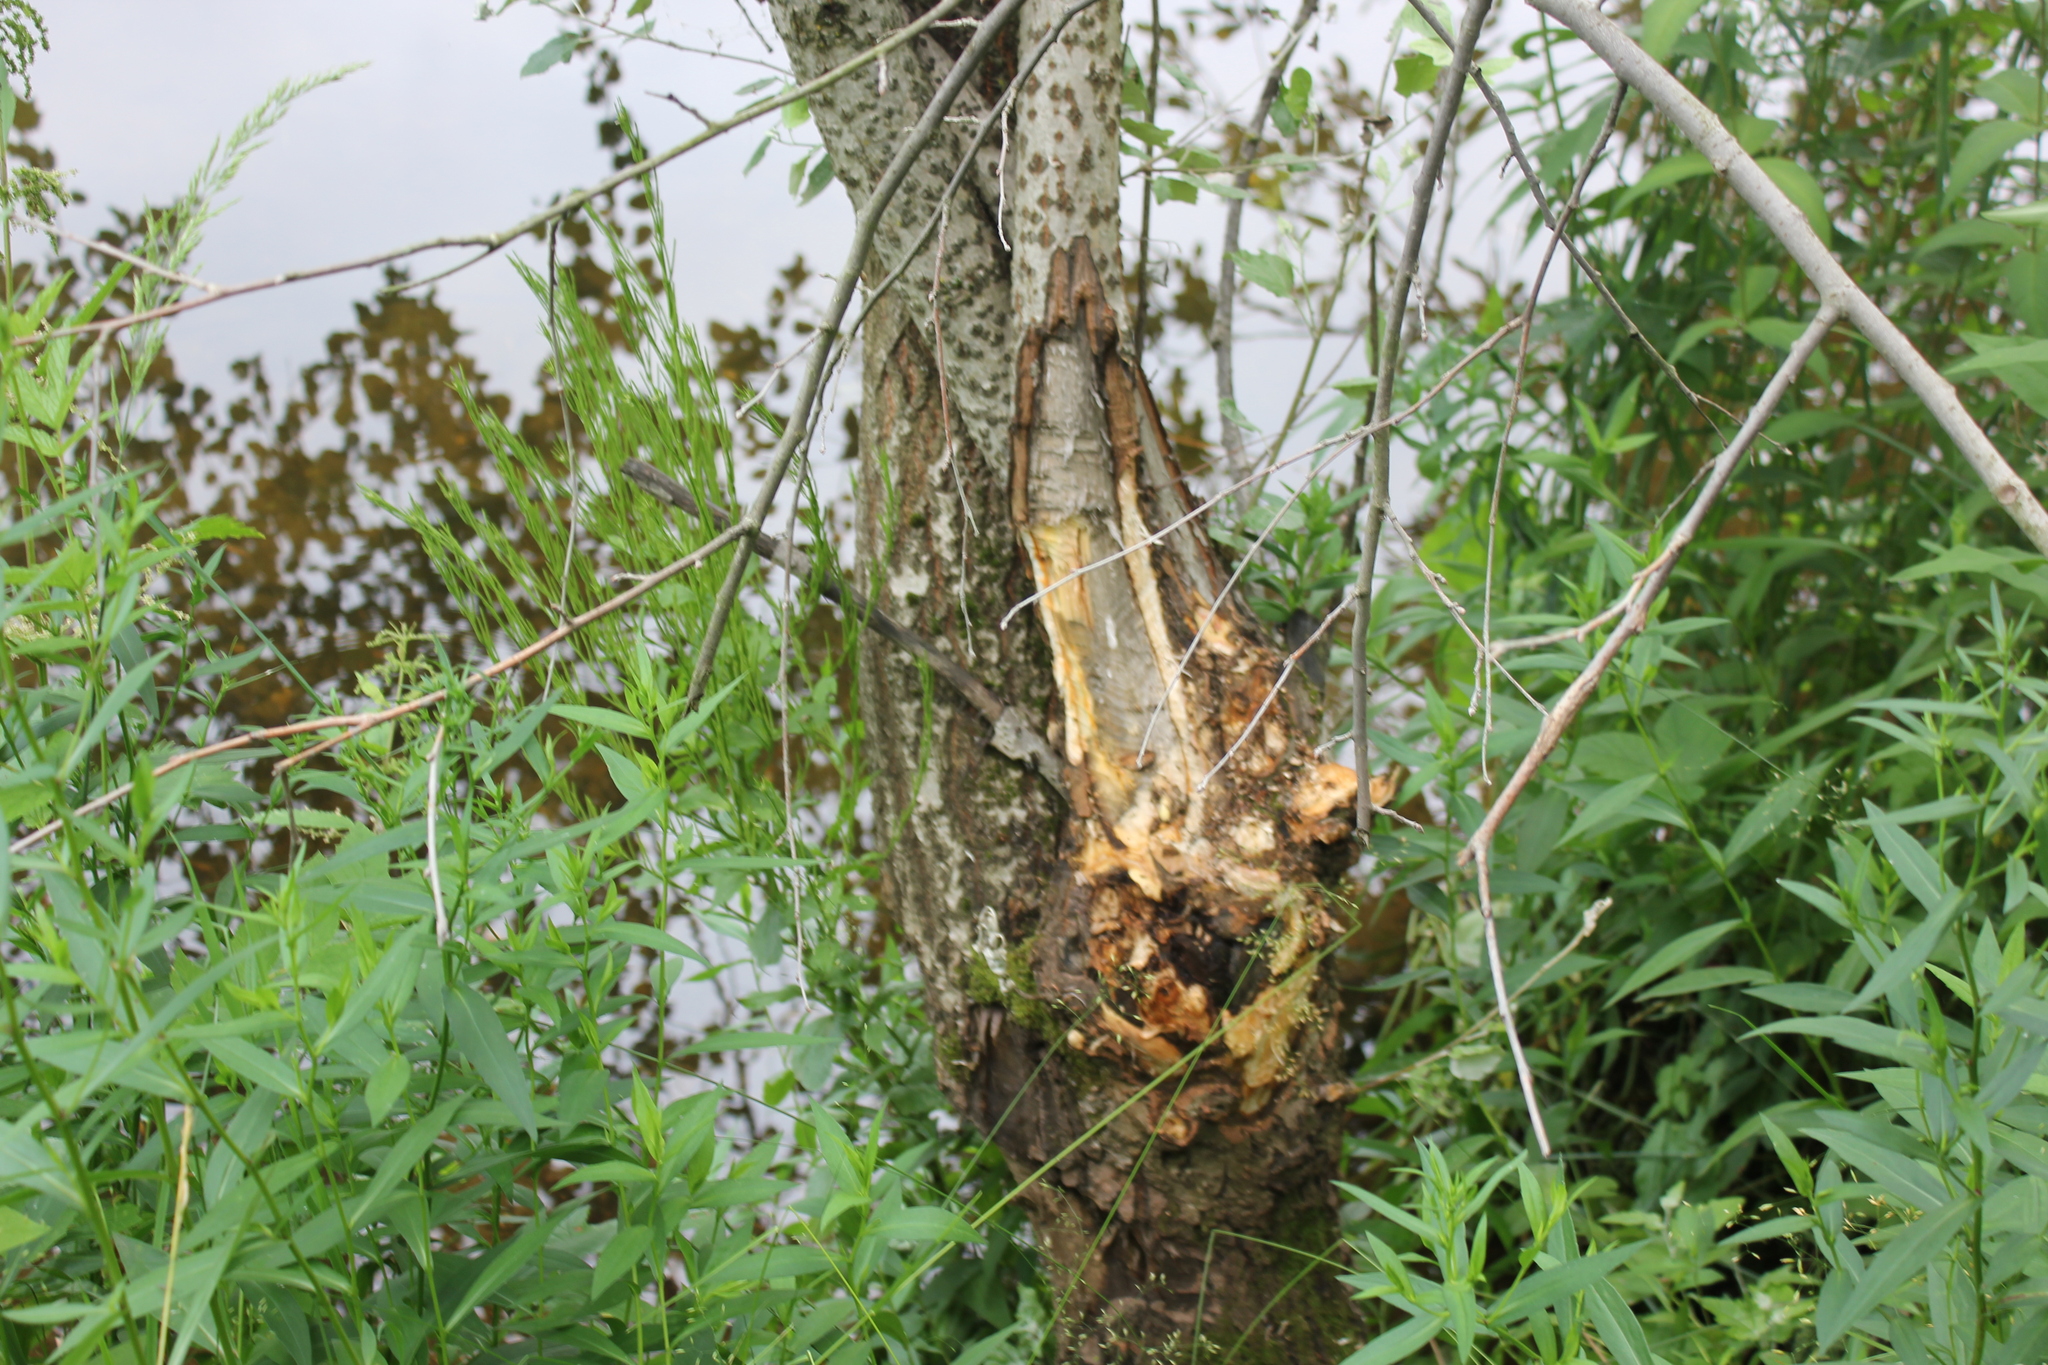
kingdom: Animalia
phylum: Chordata
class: Mammalia
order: Rodentia
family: Castoridae
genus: Castor
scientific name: Castor fiber
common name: Eurasian beaver
